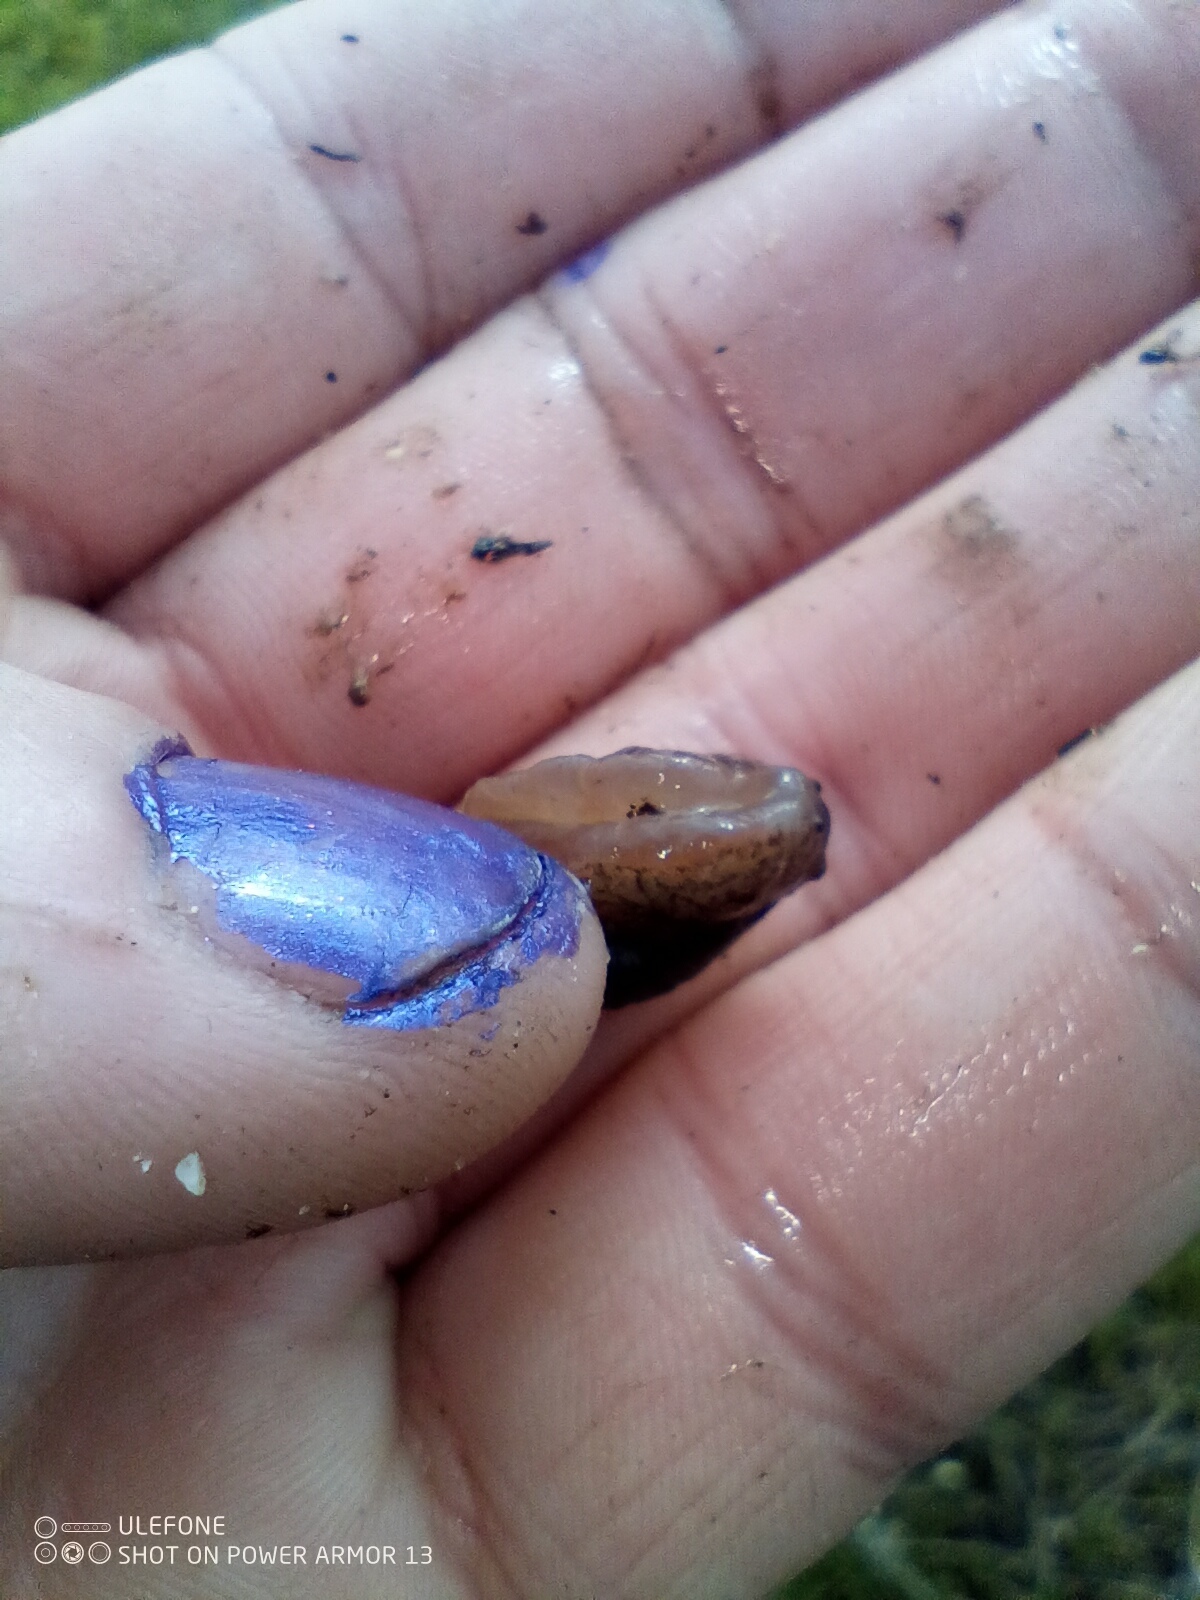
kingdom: Animalia
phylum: Mollusca
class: Gastropoda
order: Stylommatophora
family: Succineidae
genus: Succinea
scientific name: Succinea australis
